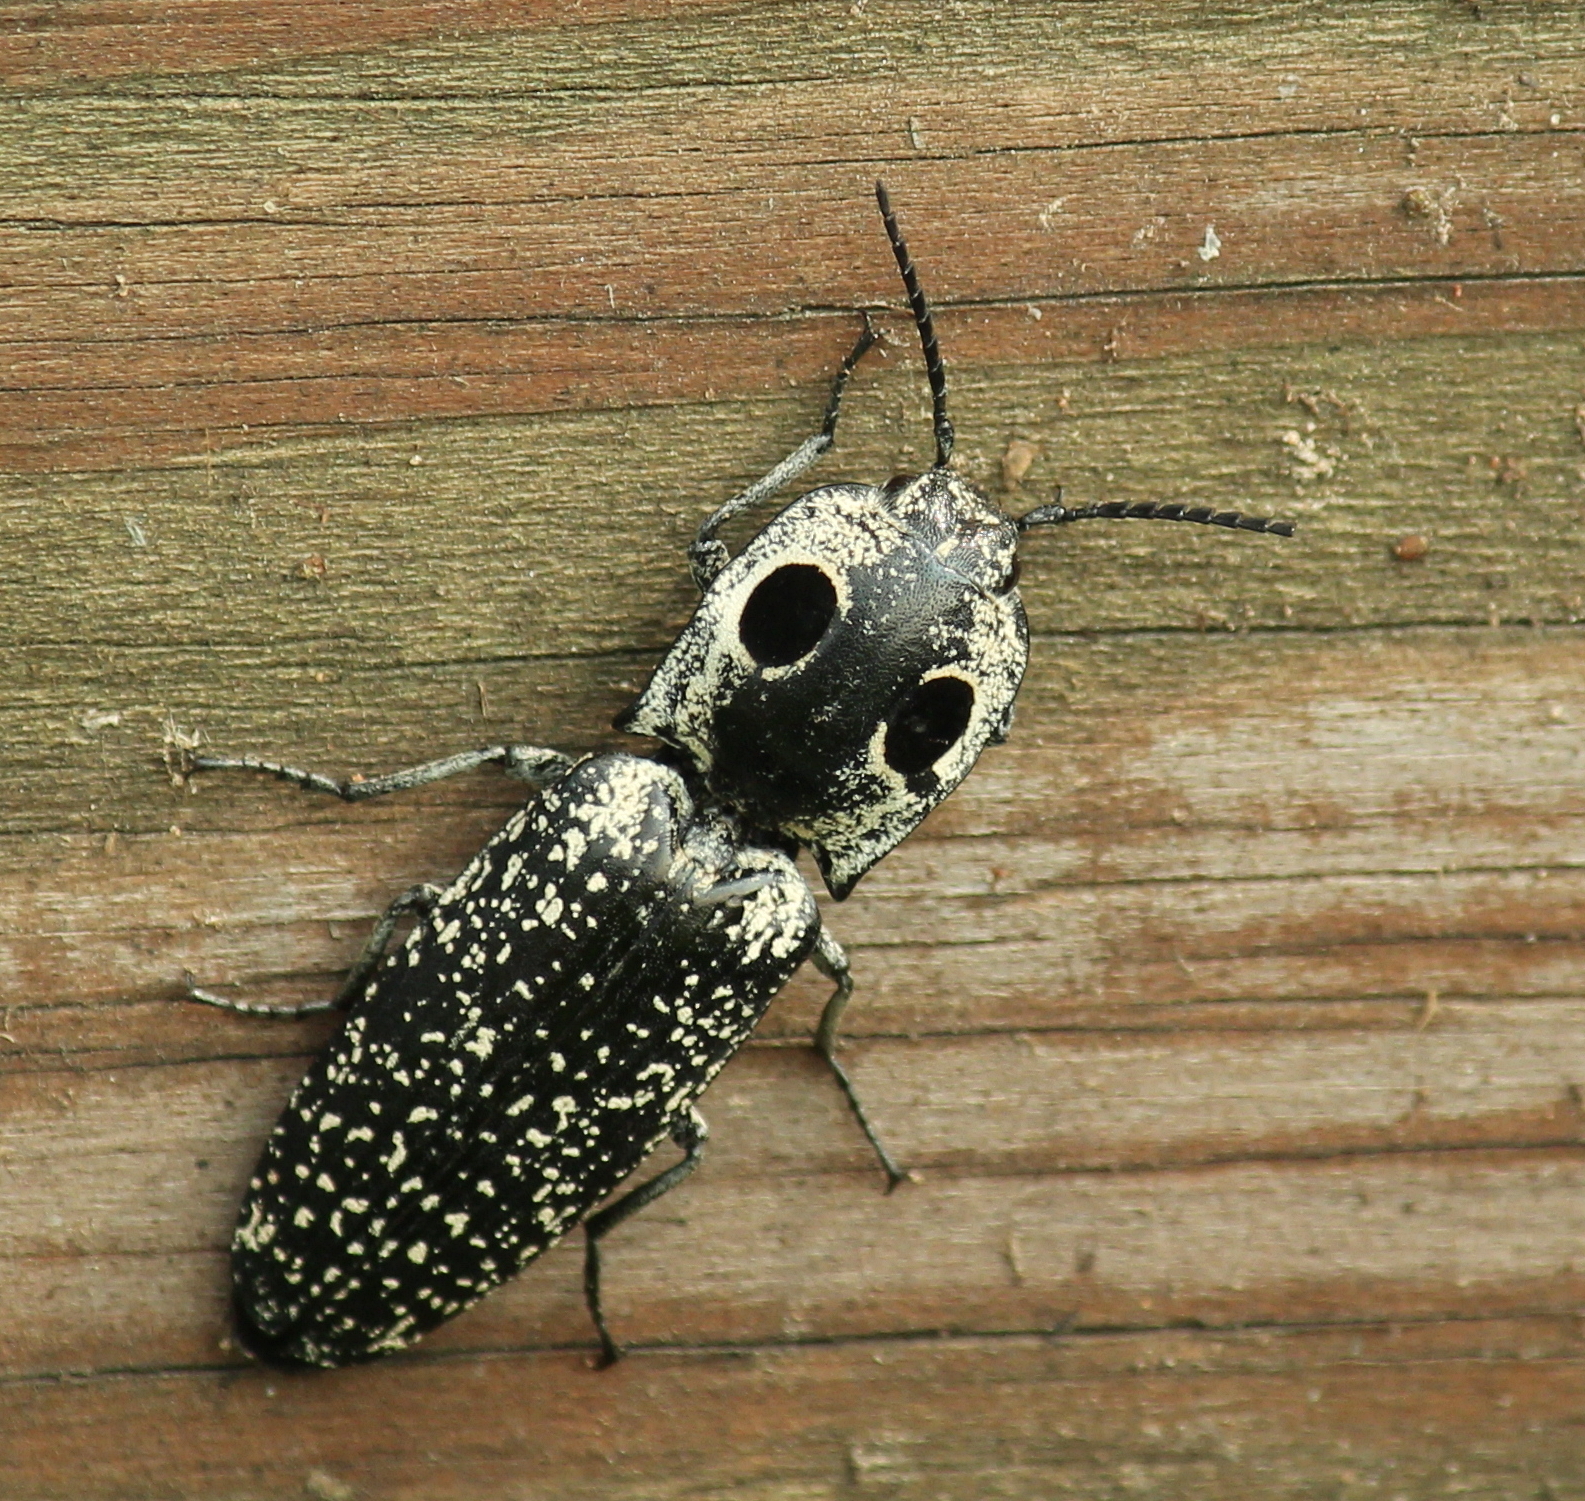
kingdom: Animalia
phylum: Arthropoda
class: Insecta
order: Coleoptera
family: Elateridae
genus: Alaus
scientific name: Alaus oculatus
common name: Eastern eyed click beetle
